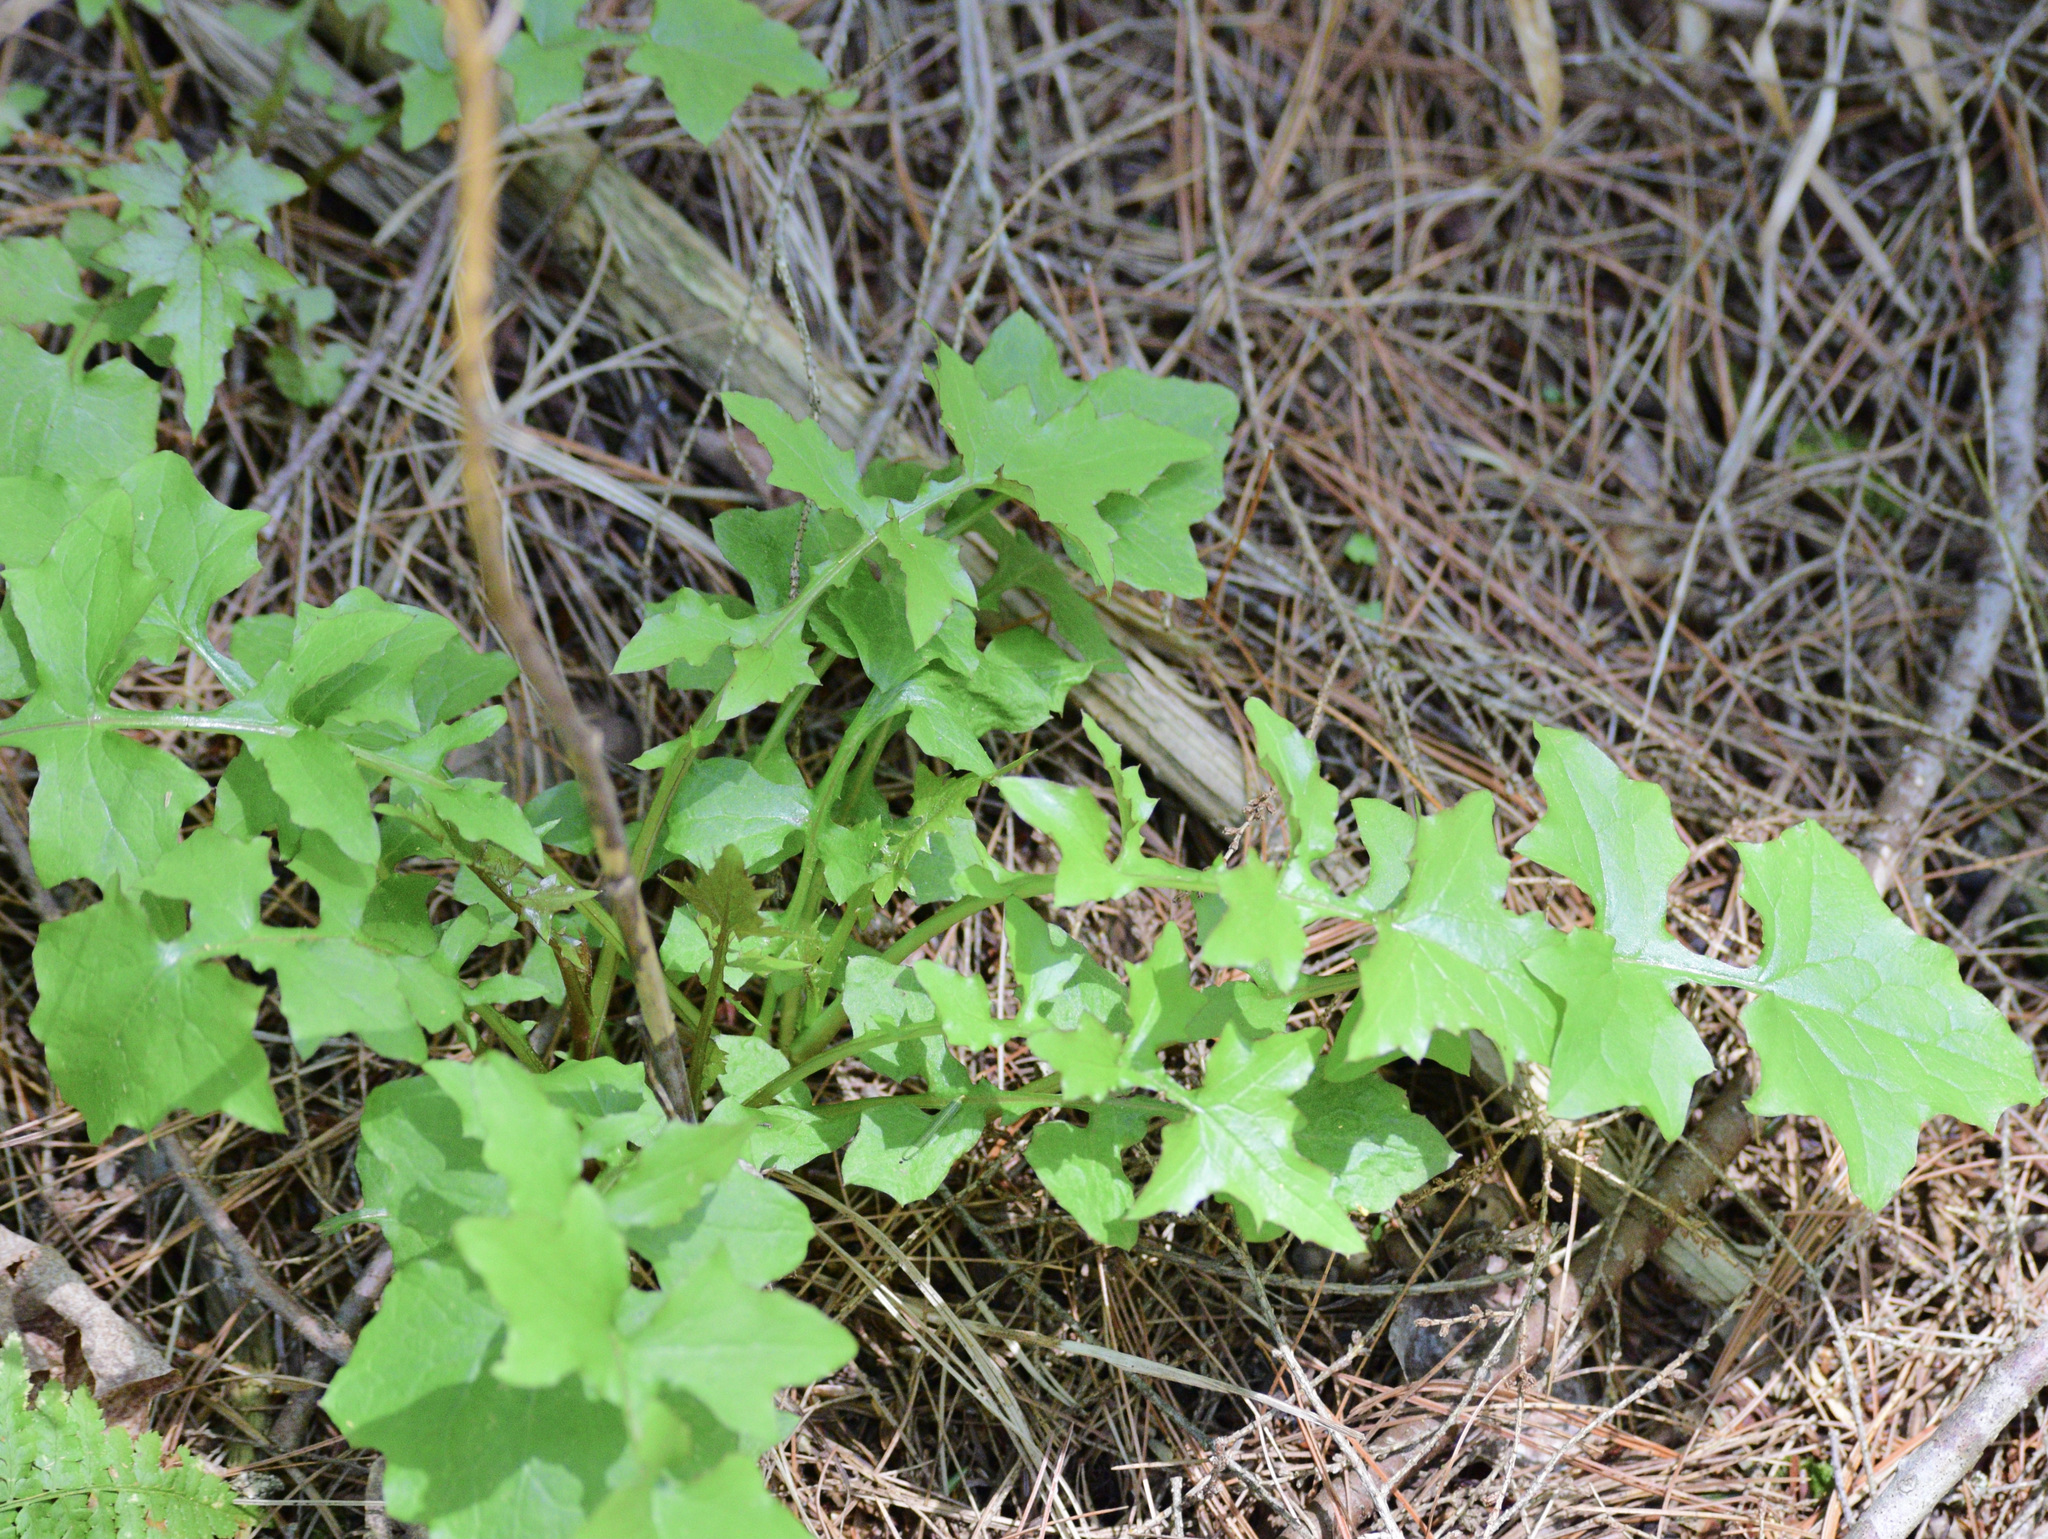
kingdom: Plantae
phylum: Tracheophyta
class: Magnoliopsida
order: Asterales
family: Asteraceae
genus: Mycelis
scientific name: Mycelis muralis
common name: Wall lettuce
